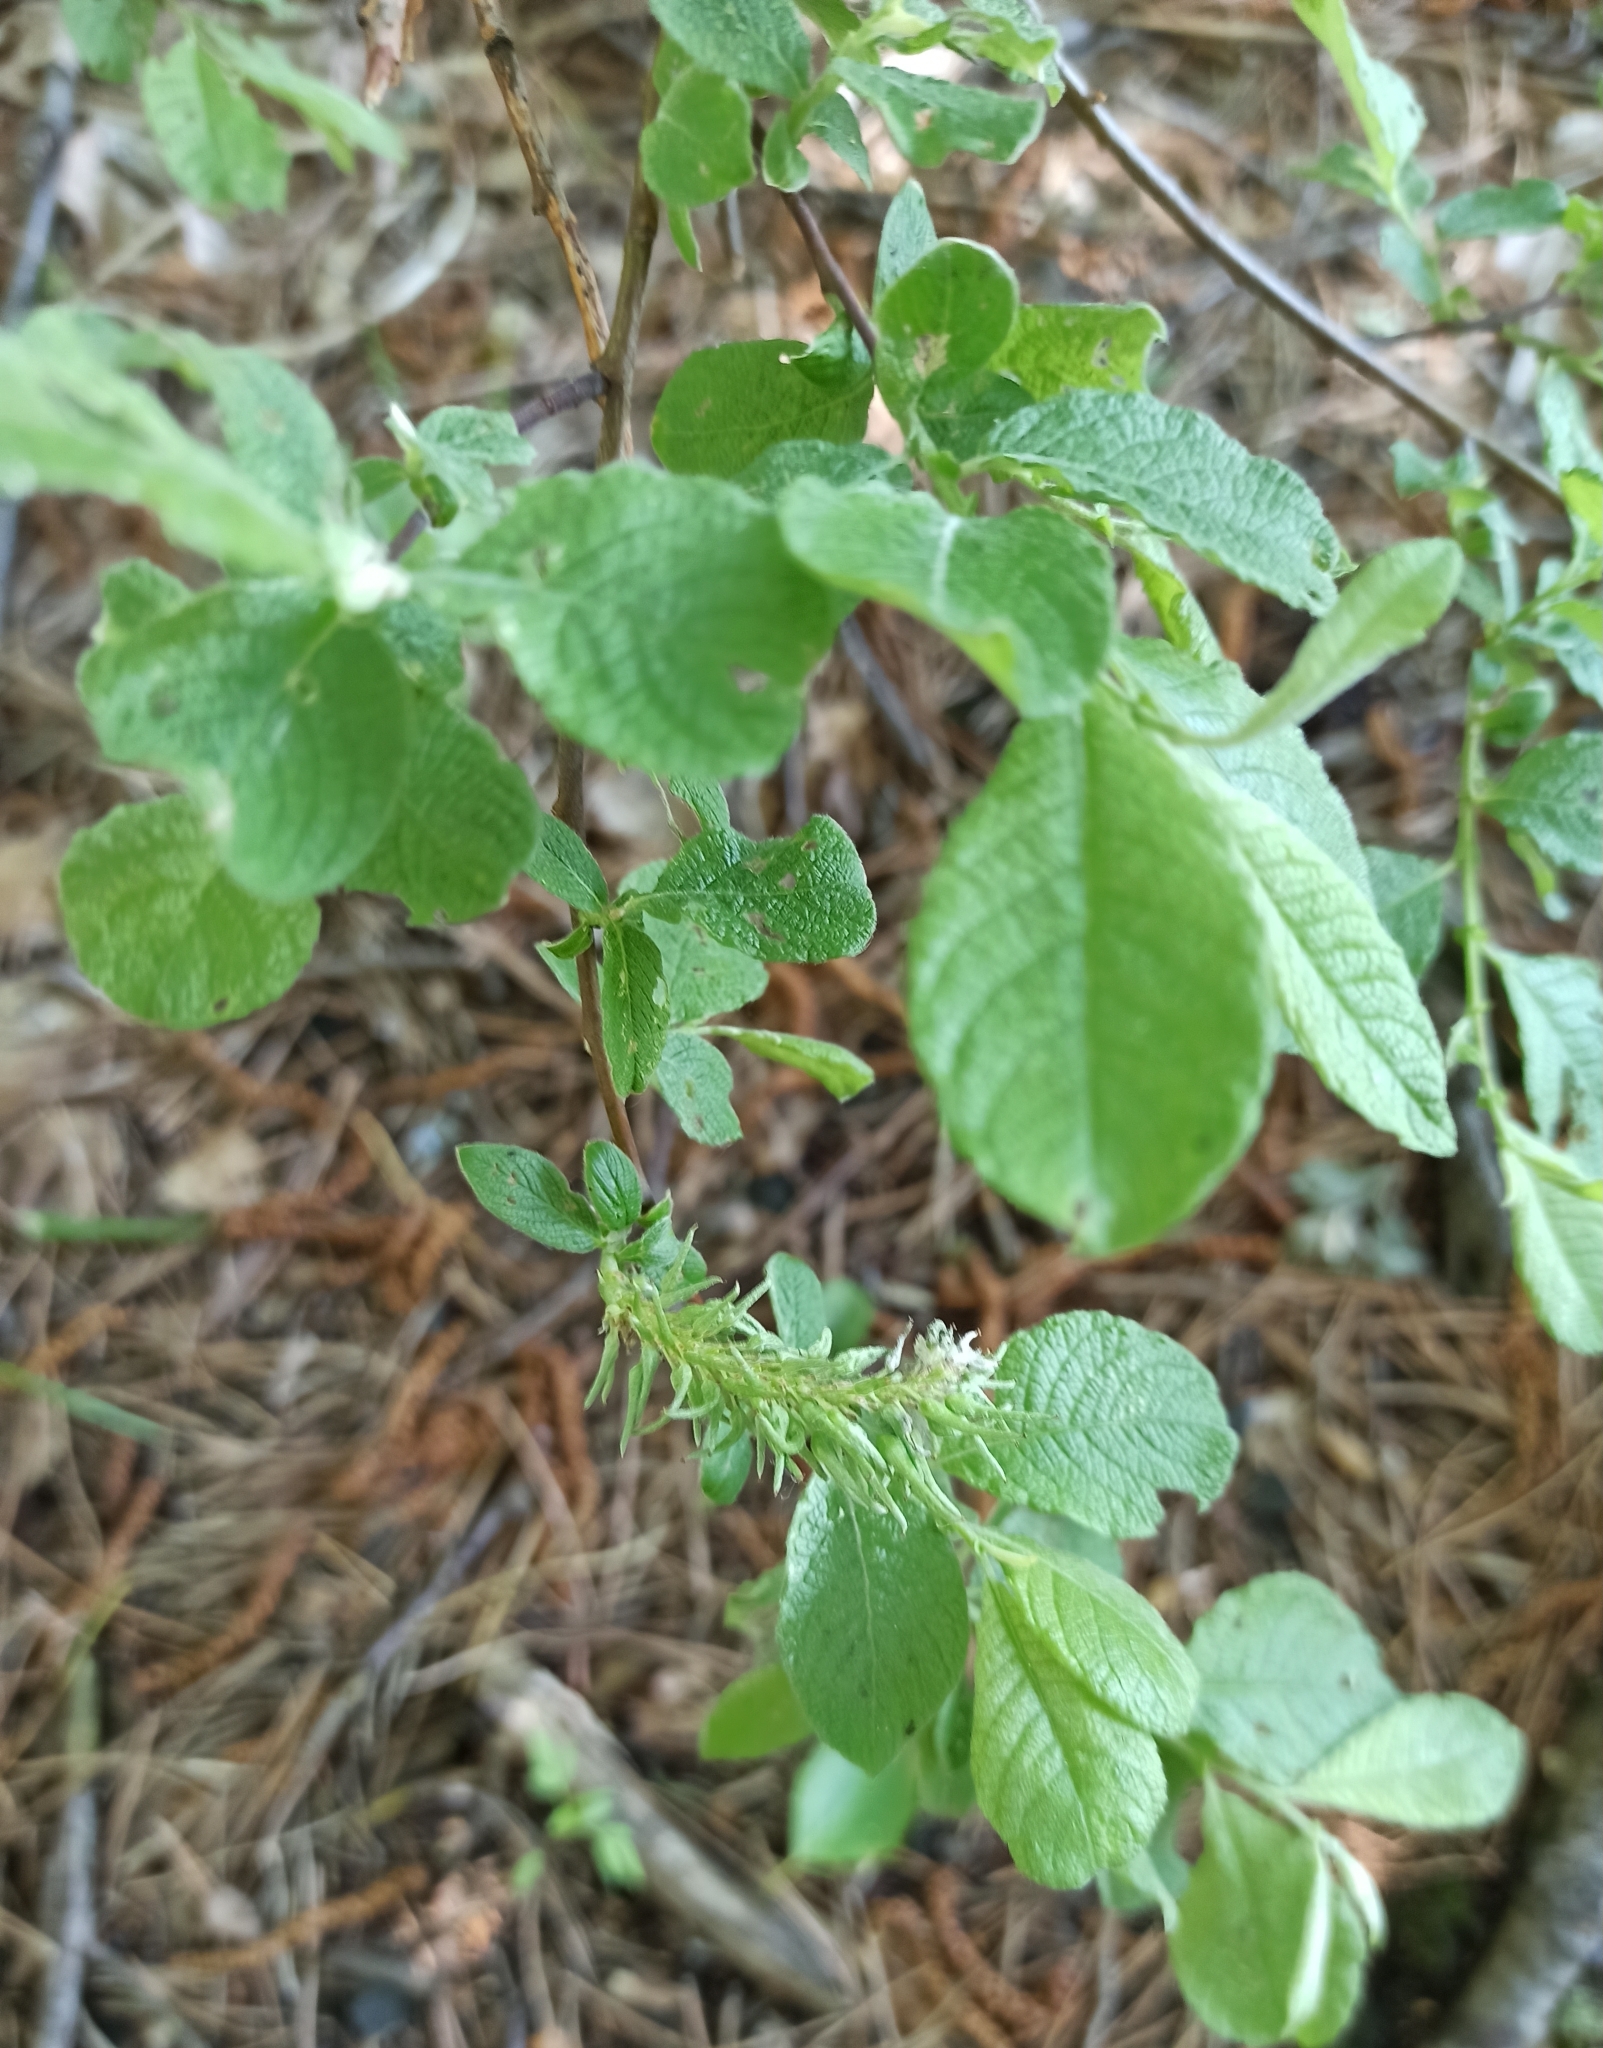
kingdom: Plantae
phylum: Tracheophyta
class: Magnoliopsida
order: Malpighiales
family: Salicaceae
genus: Salix
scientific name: Salix aurita
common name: Eared willow
